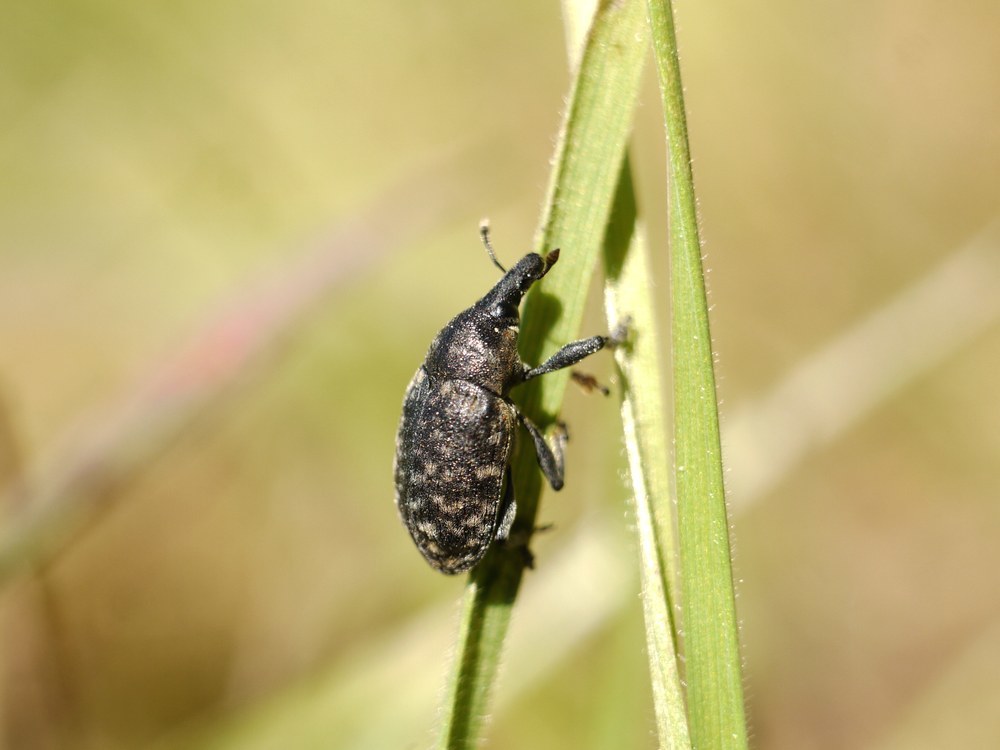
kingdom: Animalia
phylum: Arthropoda
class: Insecta
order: Coleoptera
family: Curculionidae
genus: Larinus
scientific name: Larinus turbinatus
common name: Weevil
